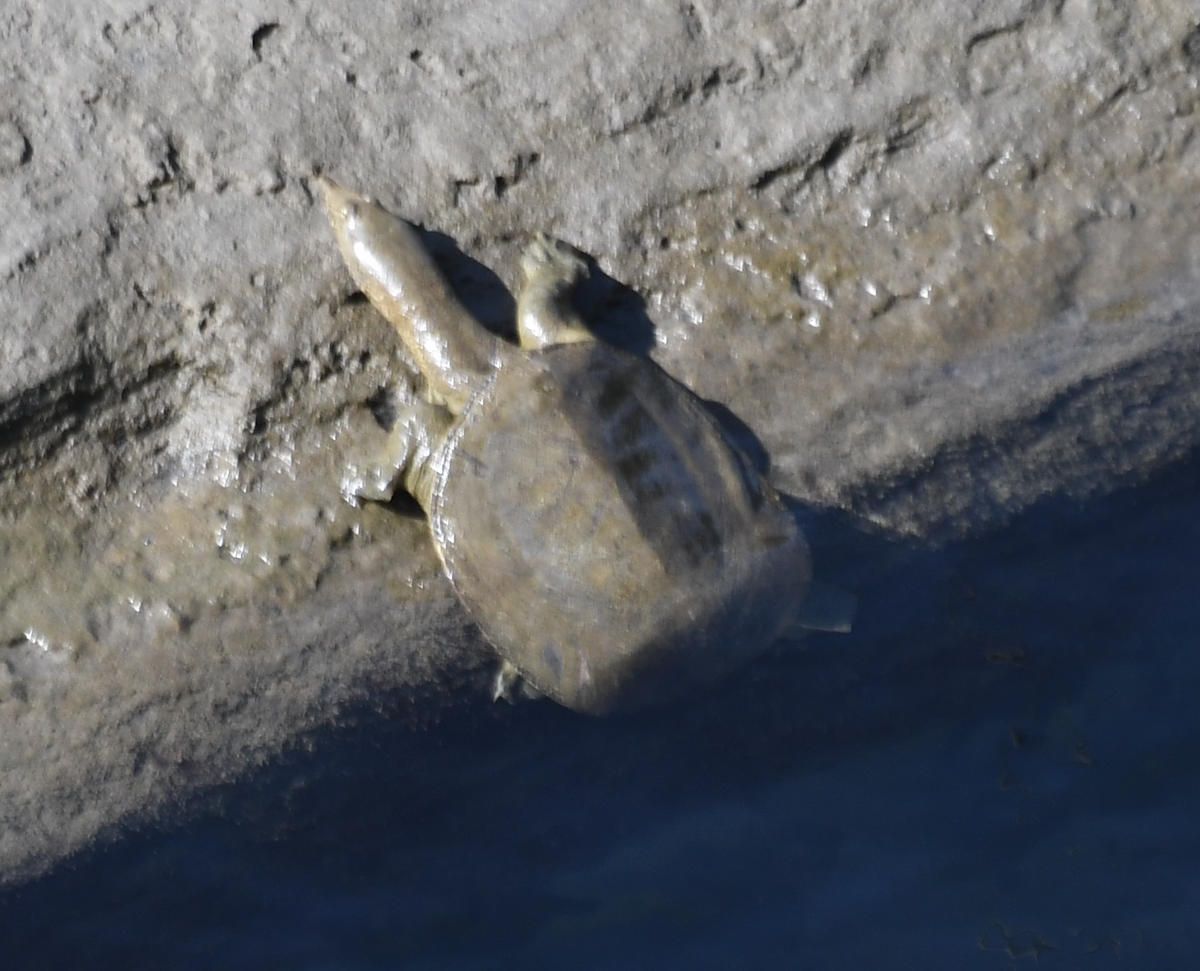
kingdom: Animalia
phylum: Chordata
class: Testudines
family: Trionychidae
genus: Pelodiscus
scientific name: Pelodiscus sinensis
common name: Chinese softshell turtle
